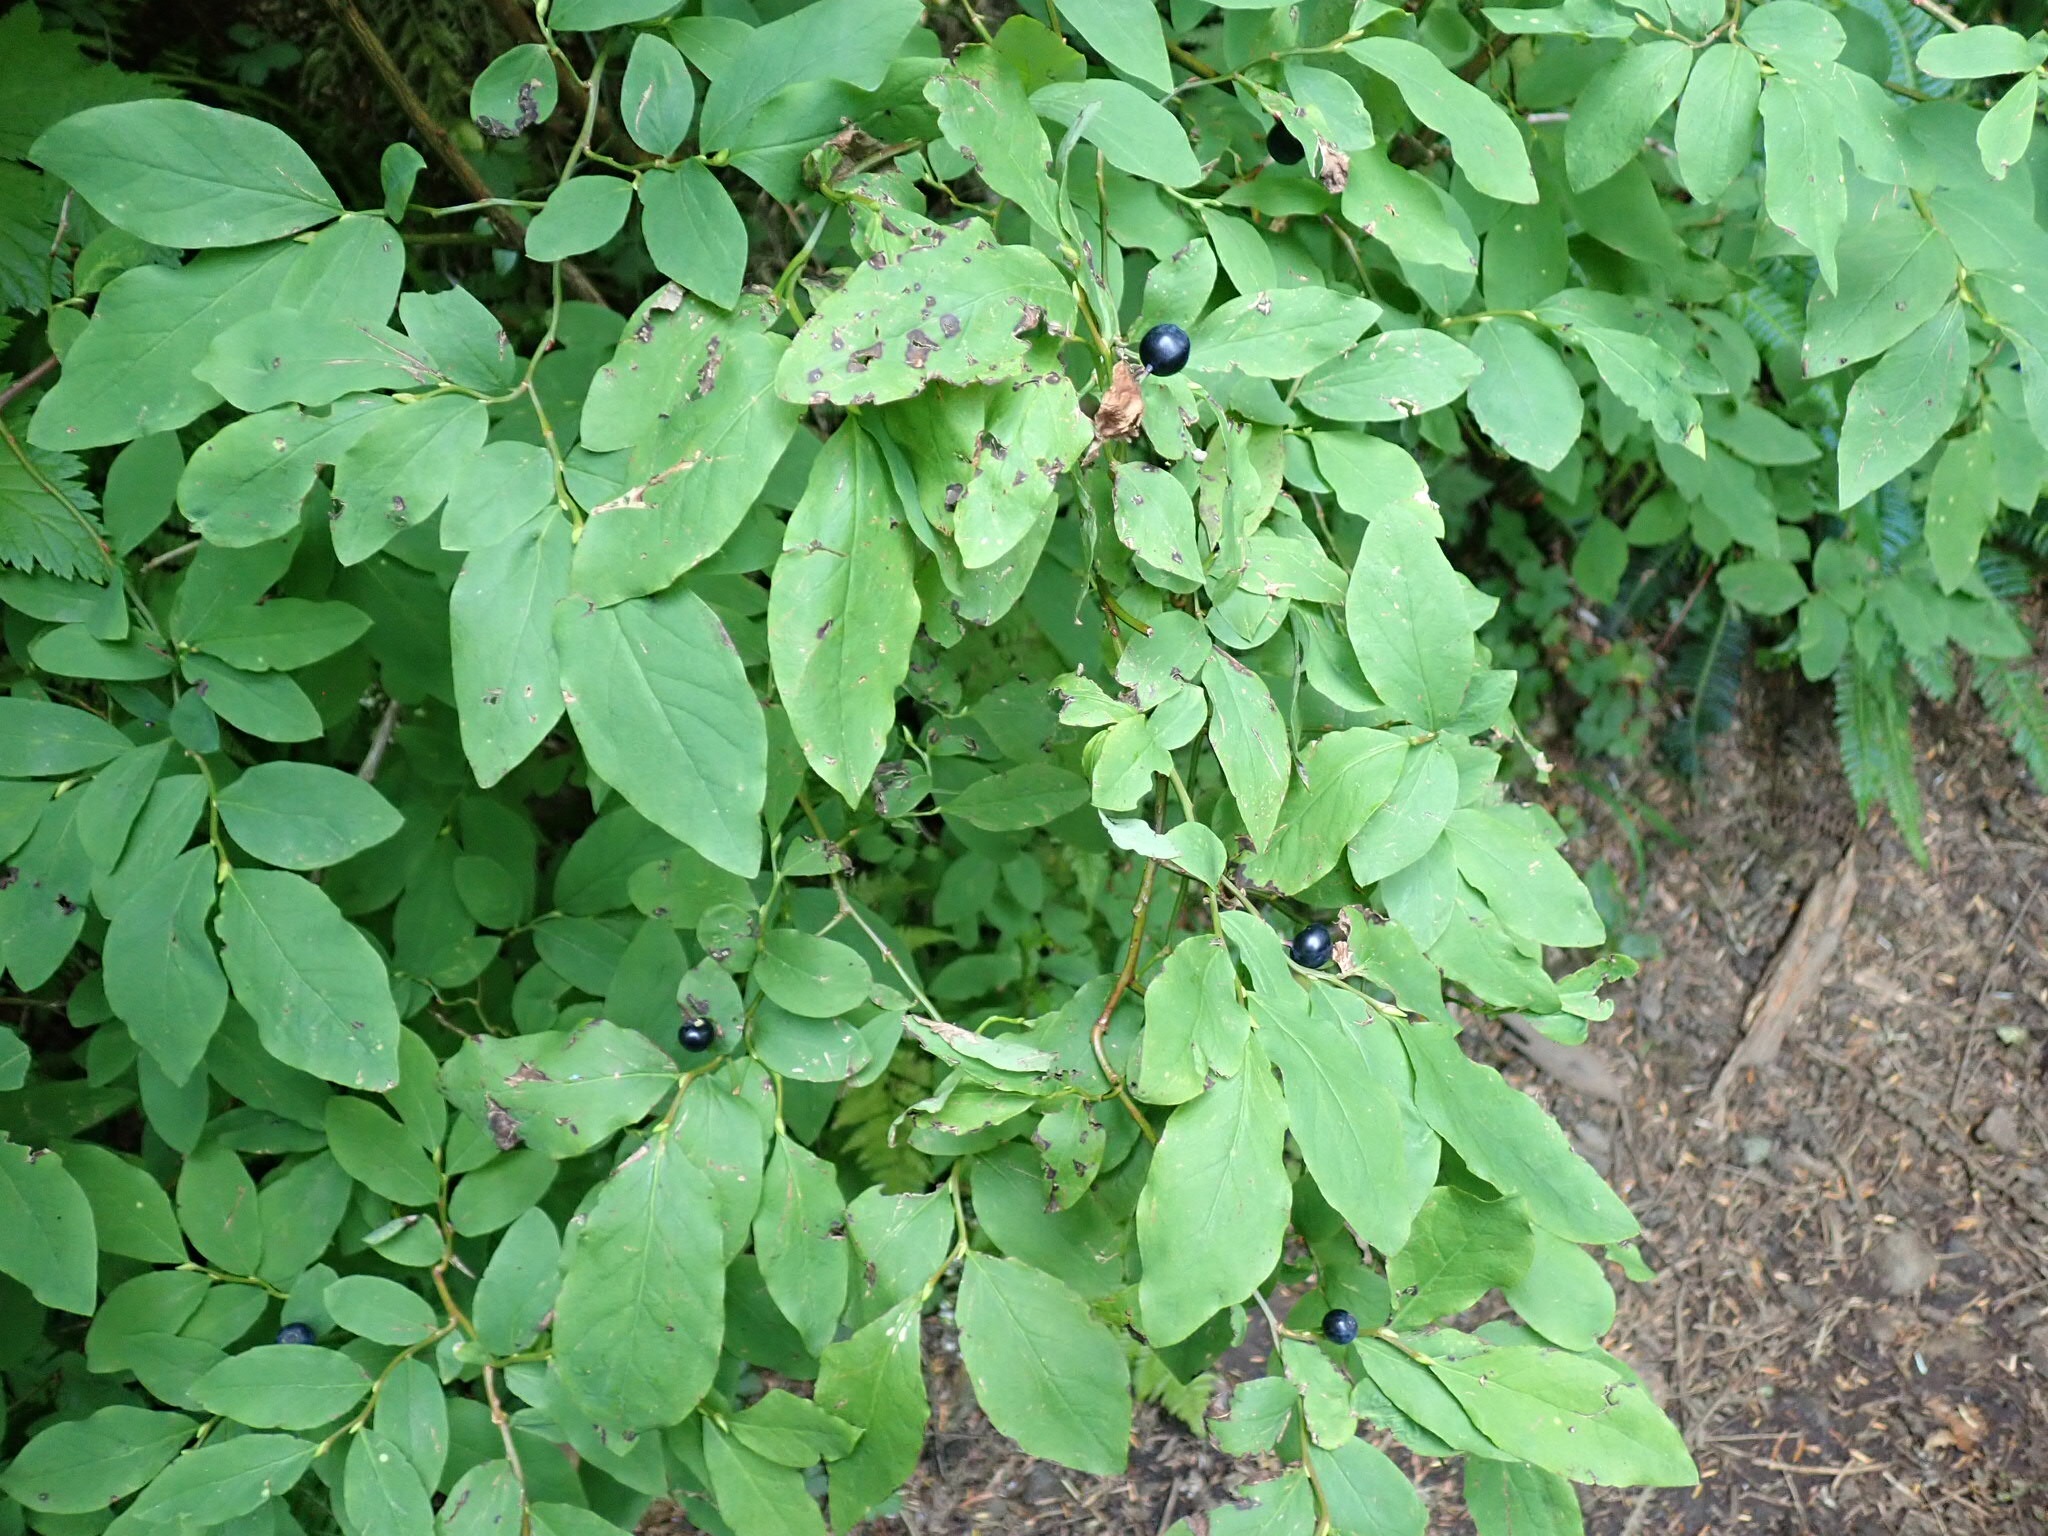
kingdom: Plantae
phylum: Tracheophyta
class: Magnoliopsida
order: Ericales
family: Ericaceae
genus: Vaccinium
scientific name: Vaccinium ovalifolium
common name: Early blueberry
